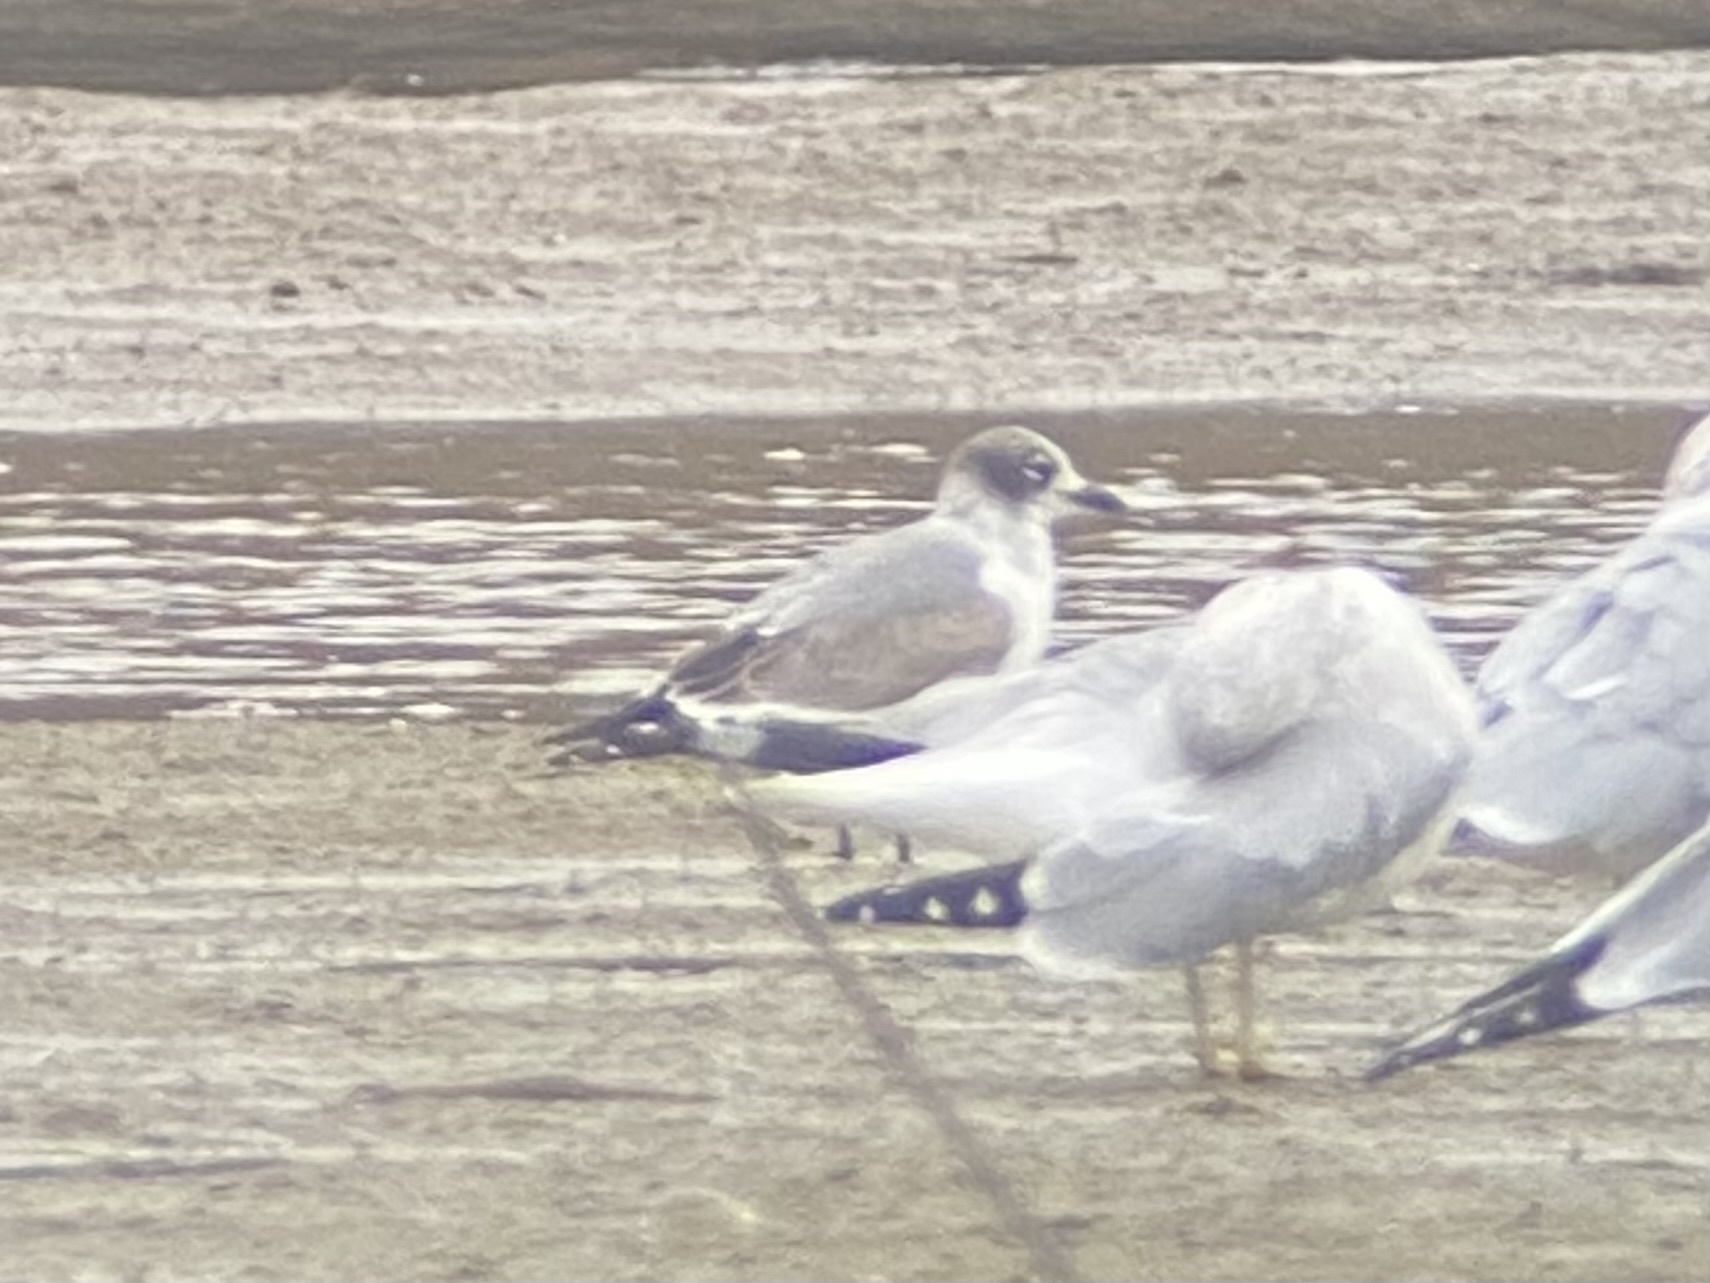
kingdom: Animalia
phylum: Chordata
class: Aves
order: Charadriiformes
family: Laridae
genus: Leucophaeus
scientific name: Leucophaeus pipixcan
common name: Franklin's gull
